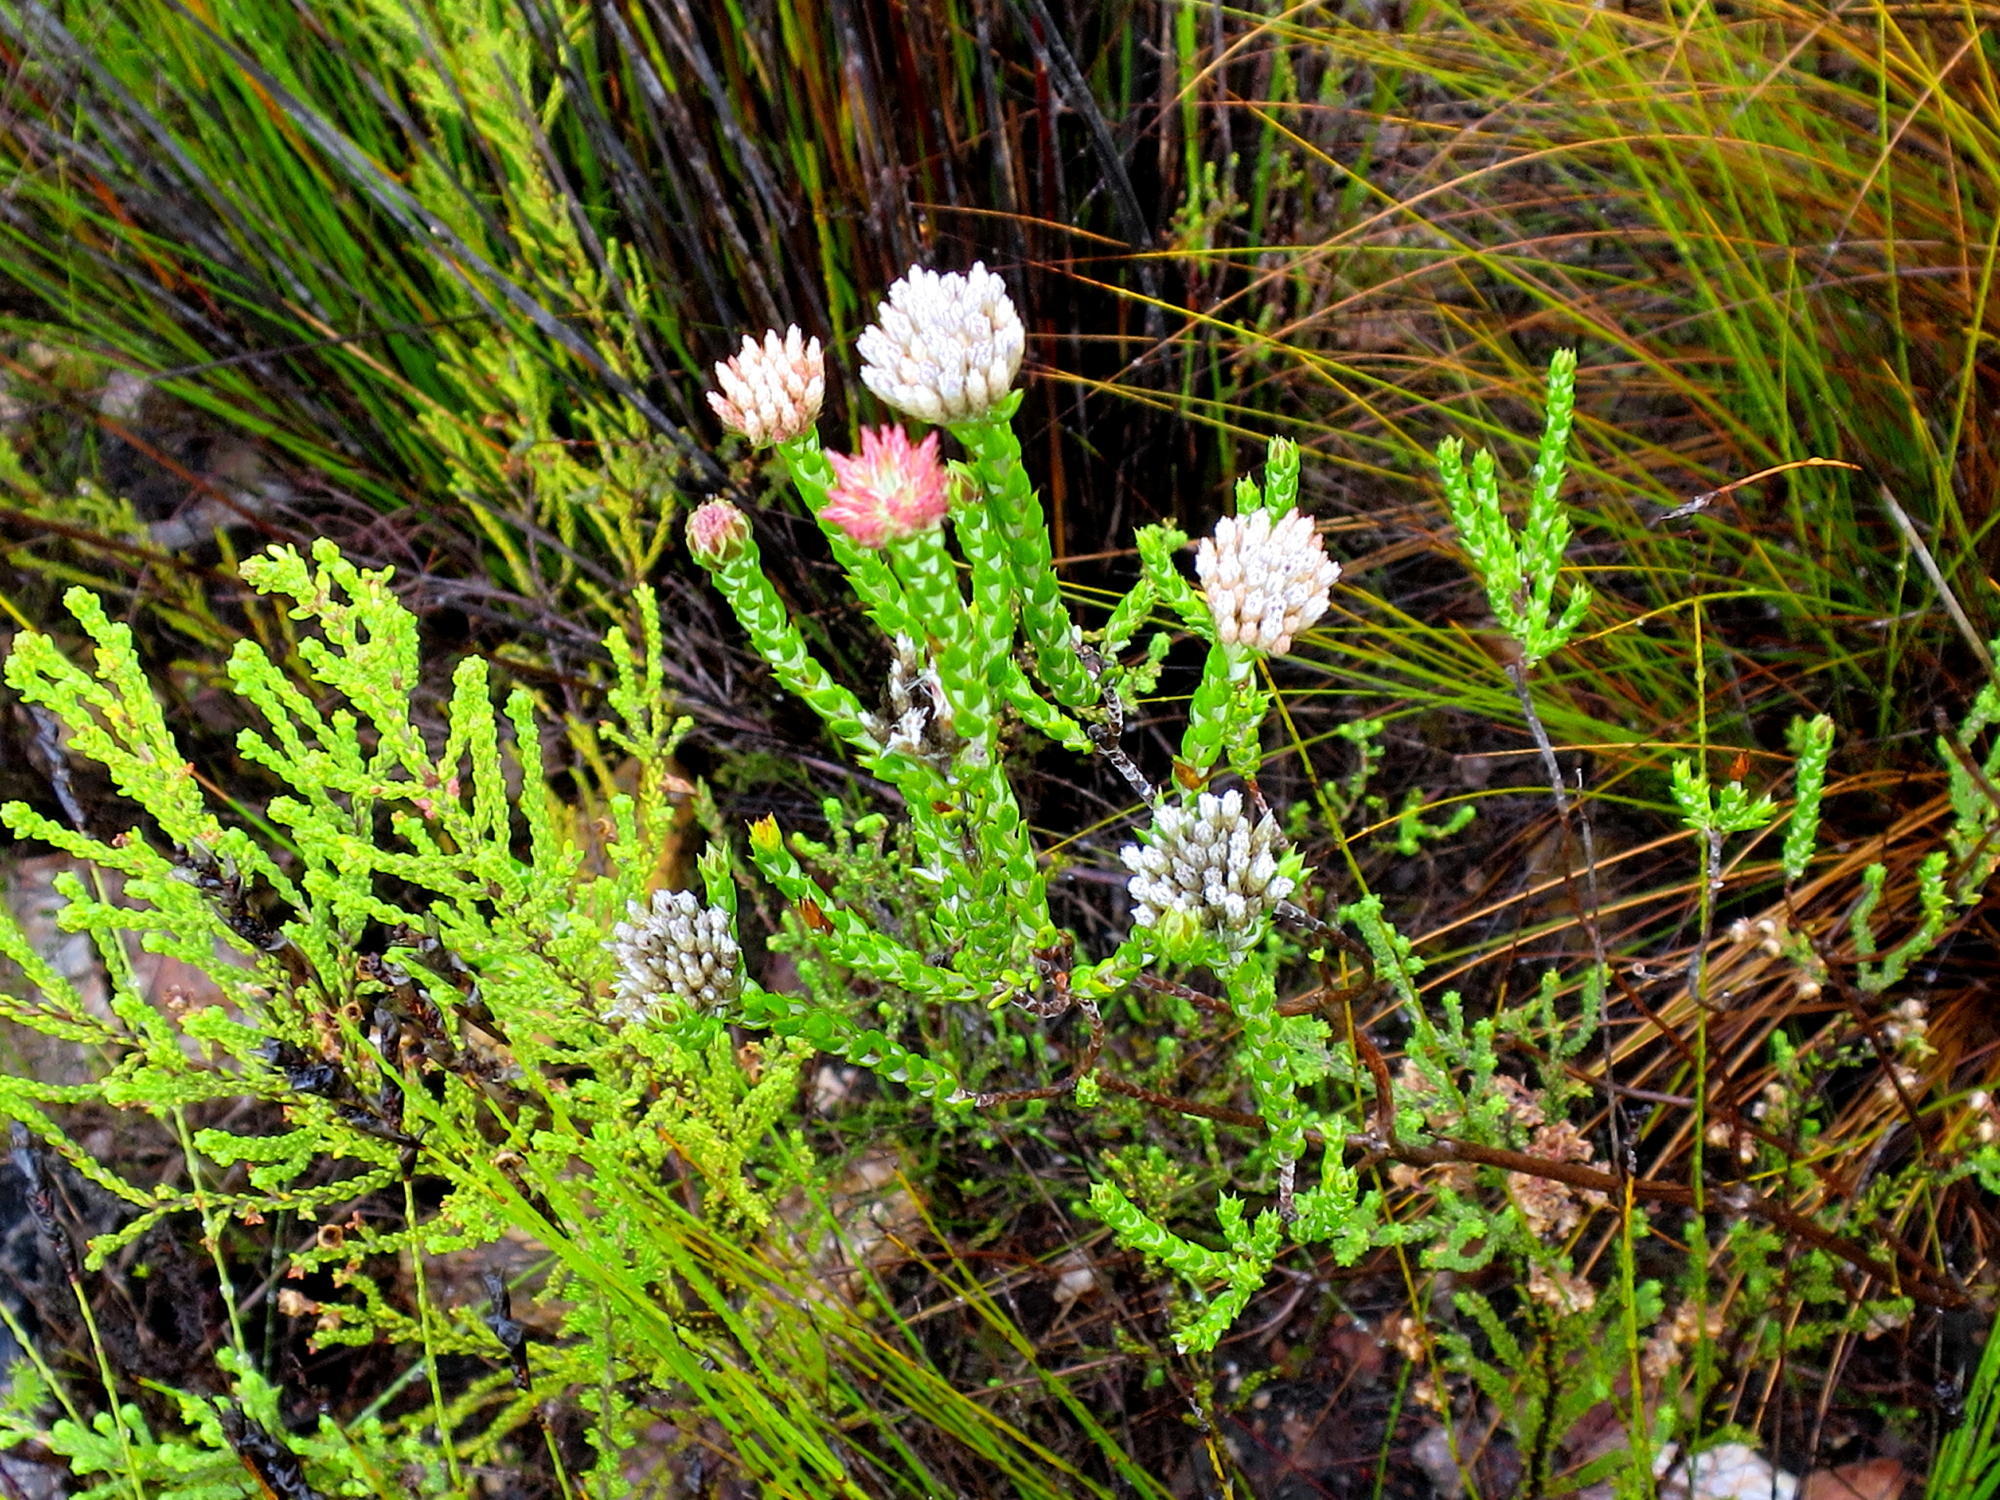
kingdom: Plantae
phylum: Tracheophyta
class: Magnoliopsida
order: Asterales
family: Asteraceae
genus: Metalasia
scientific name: Metalasia pulcherrima
